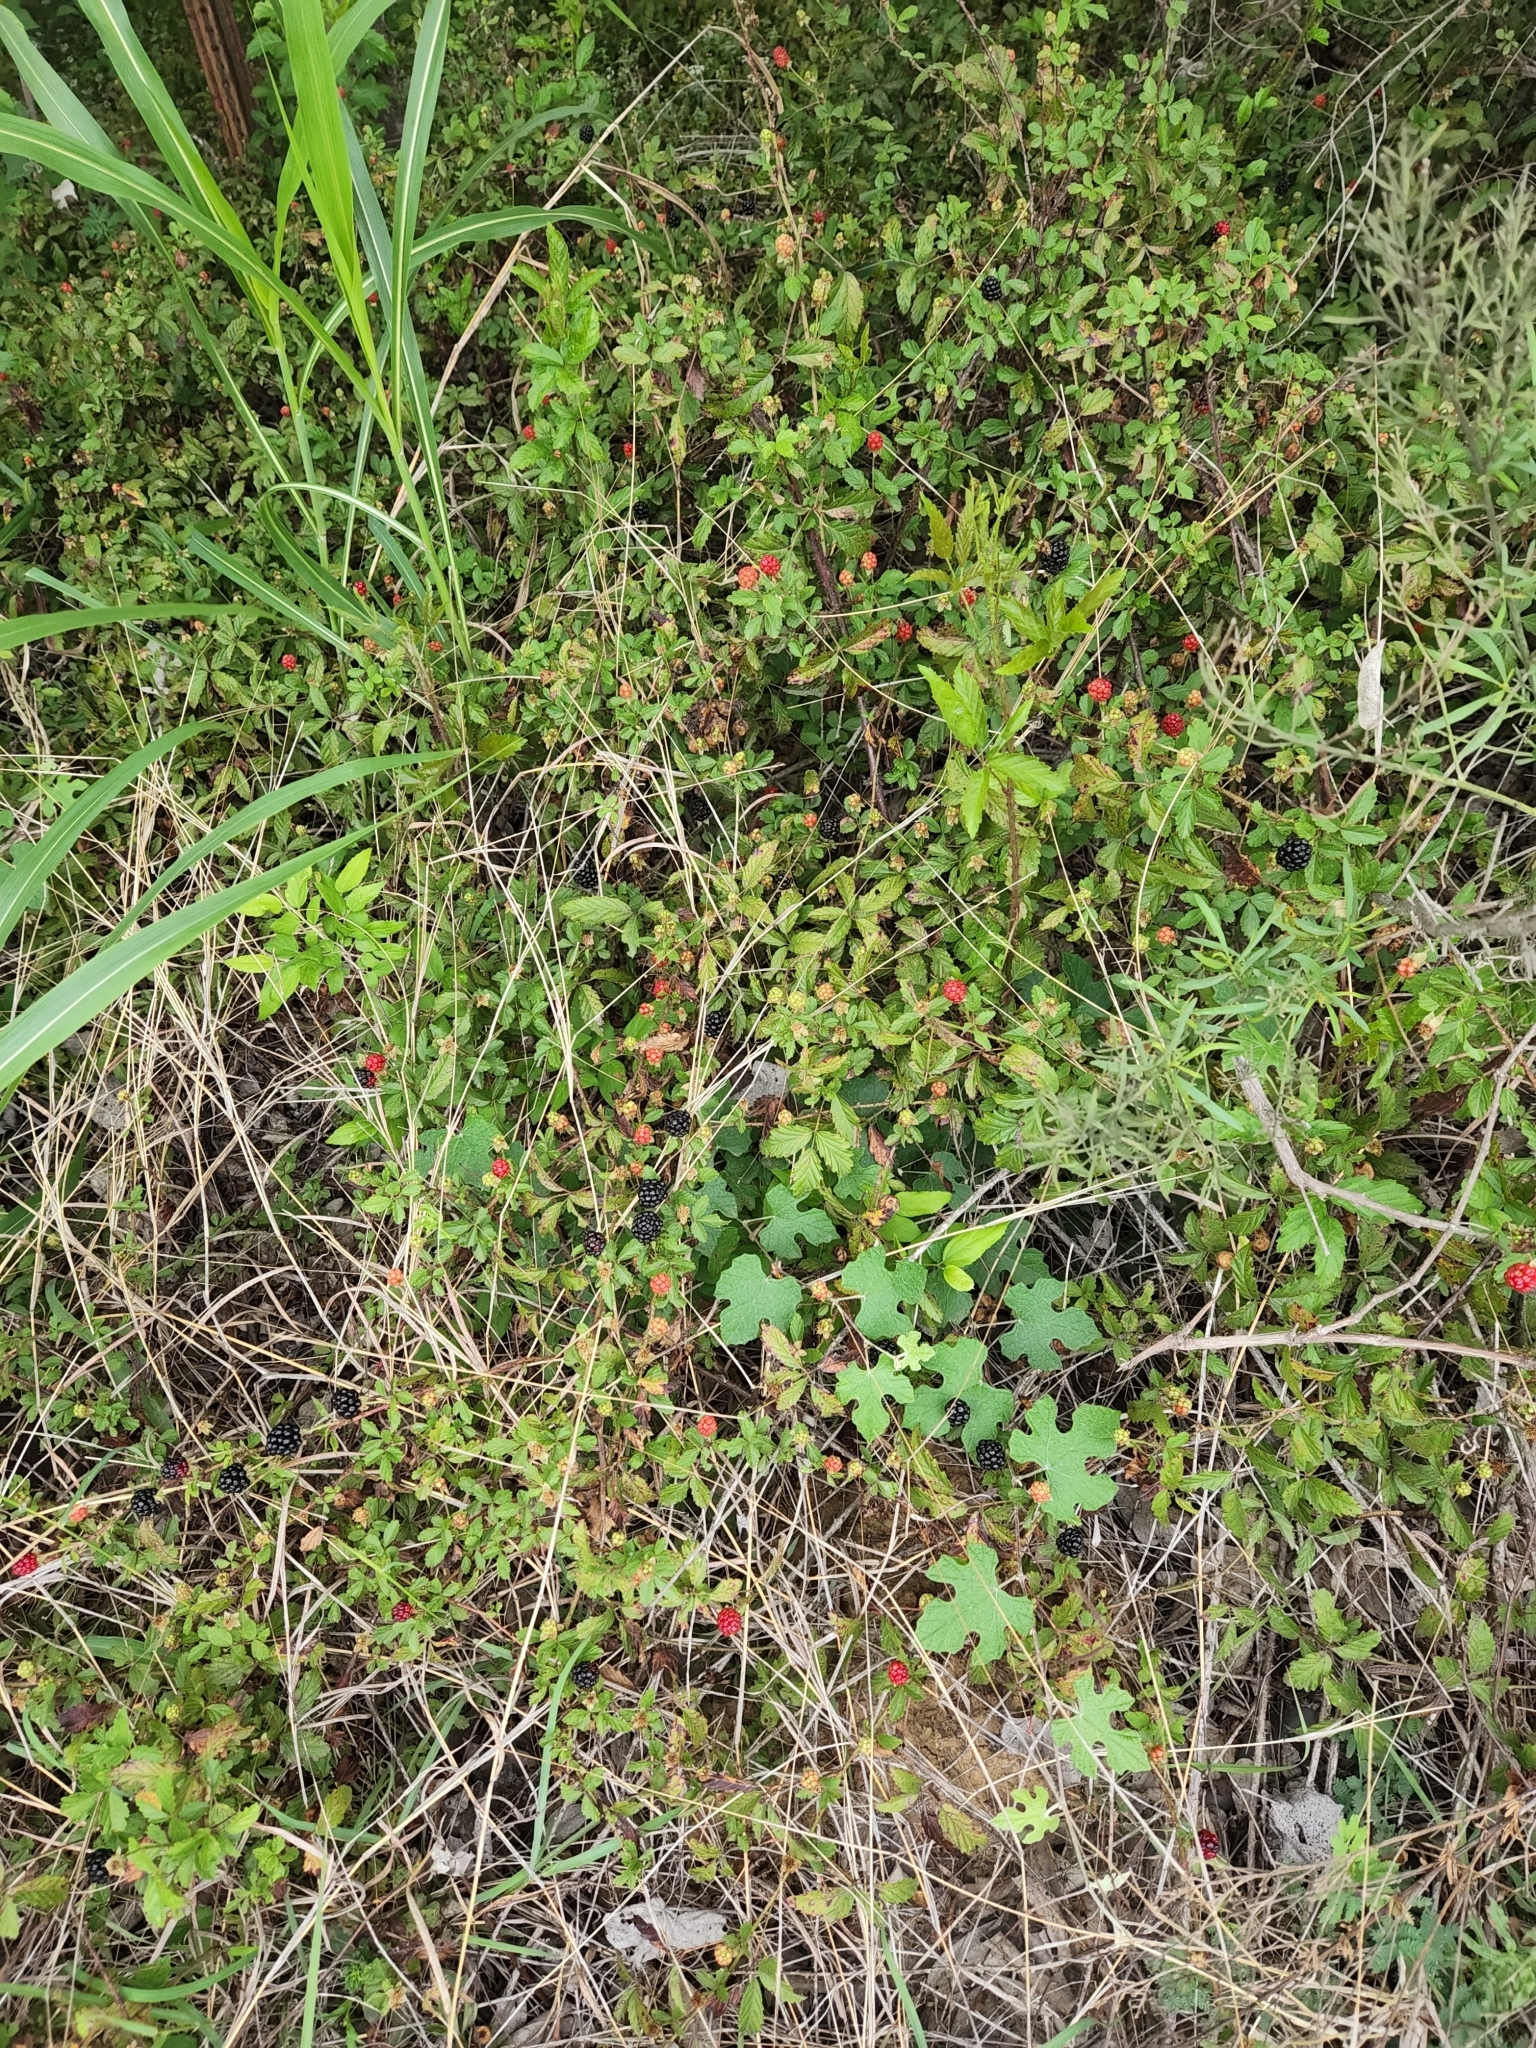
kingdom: Plantae
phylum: Tracheophyta
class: Magnoliopsida
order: Rosales
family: Rosaceae
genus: Rubus
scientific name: Rubus trivialis
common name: Southern dewberry
